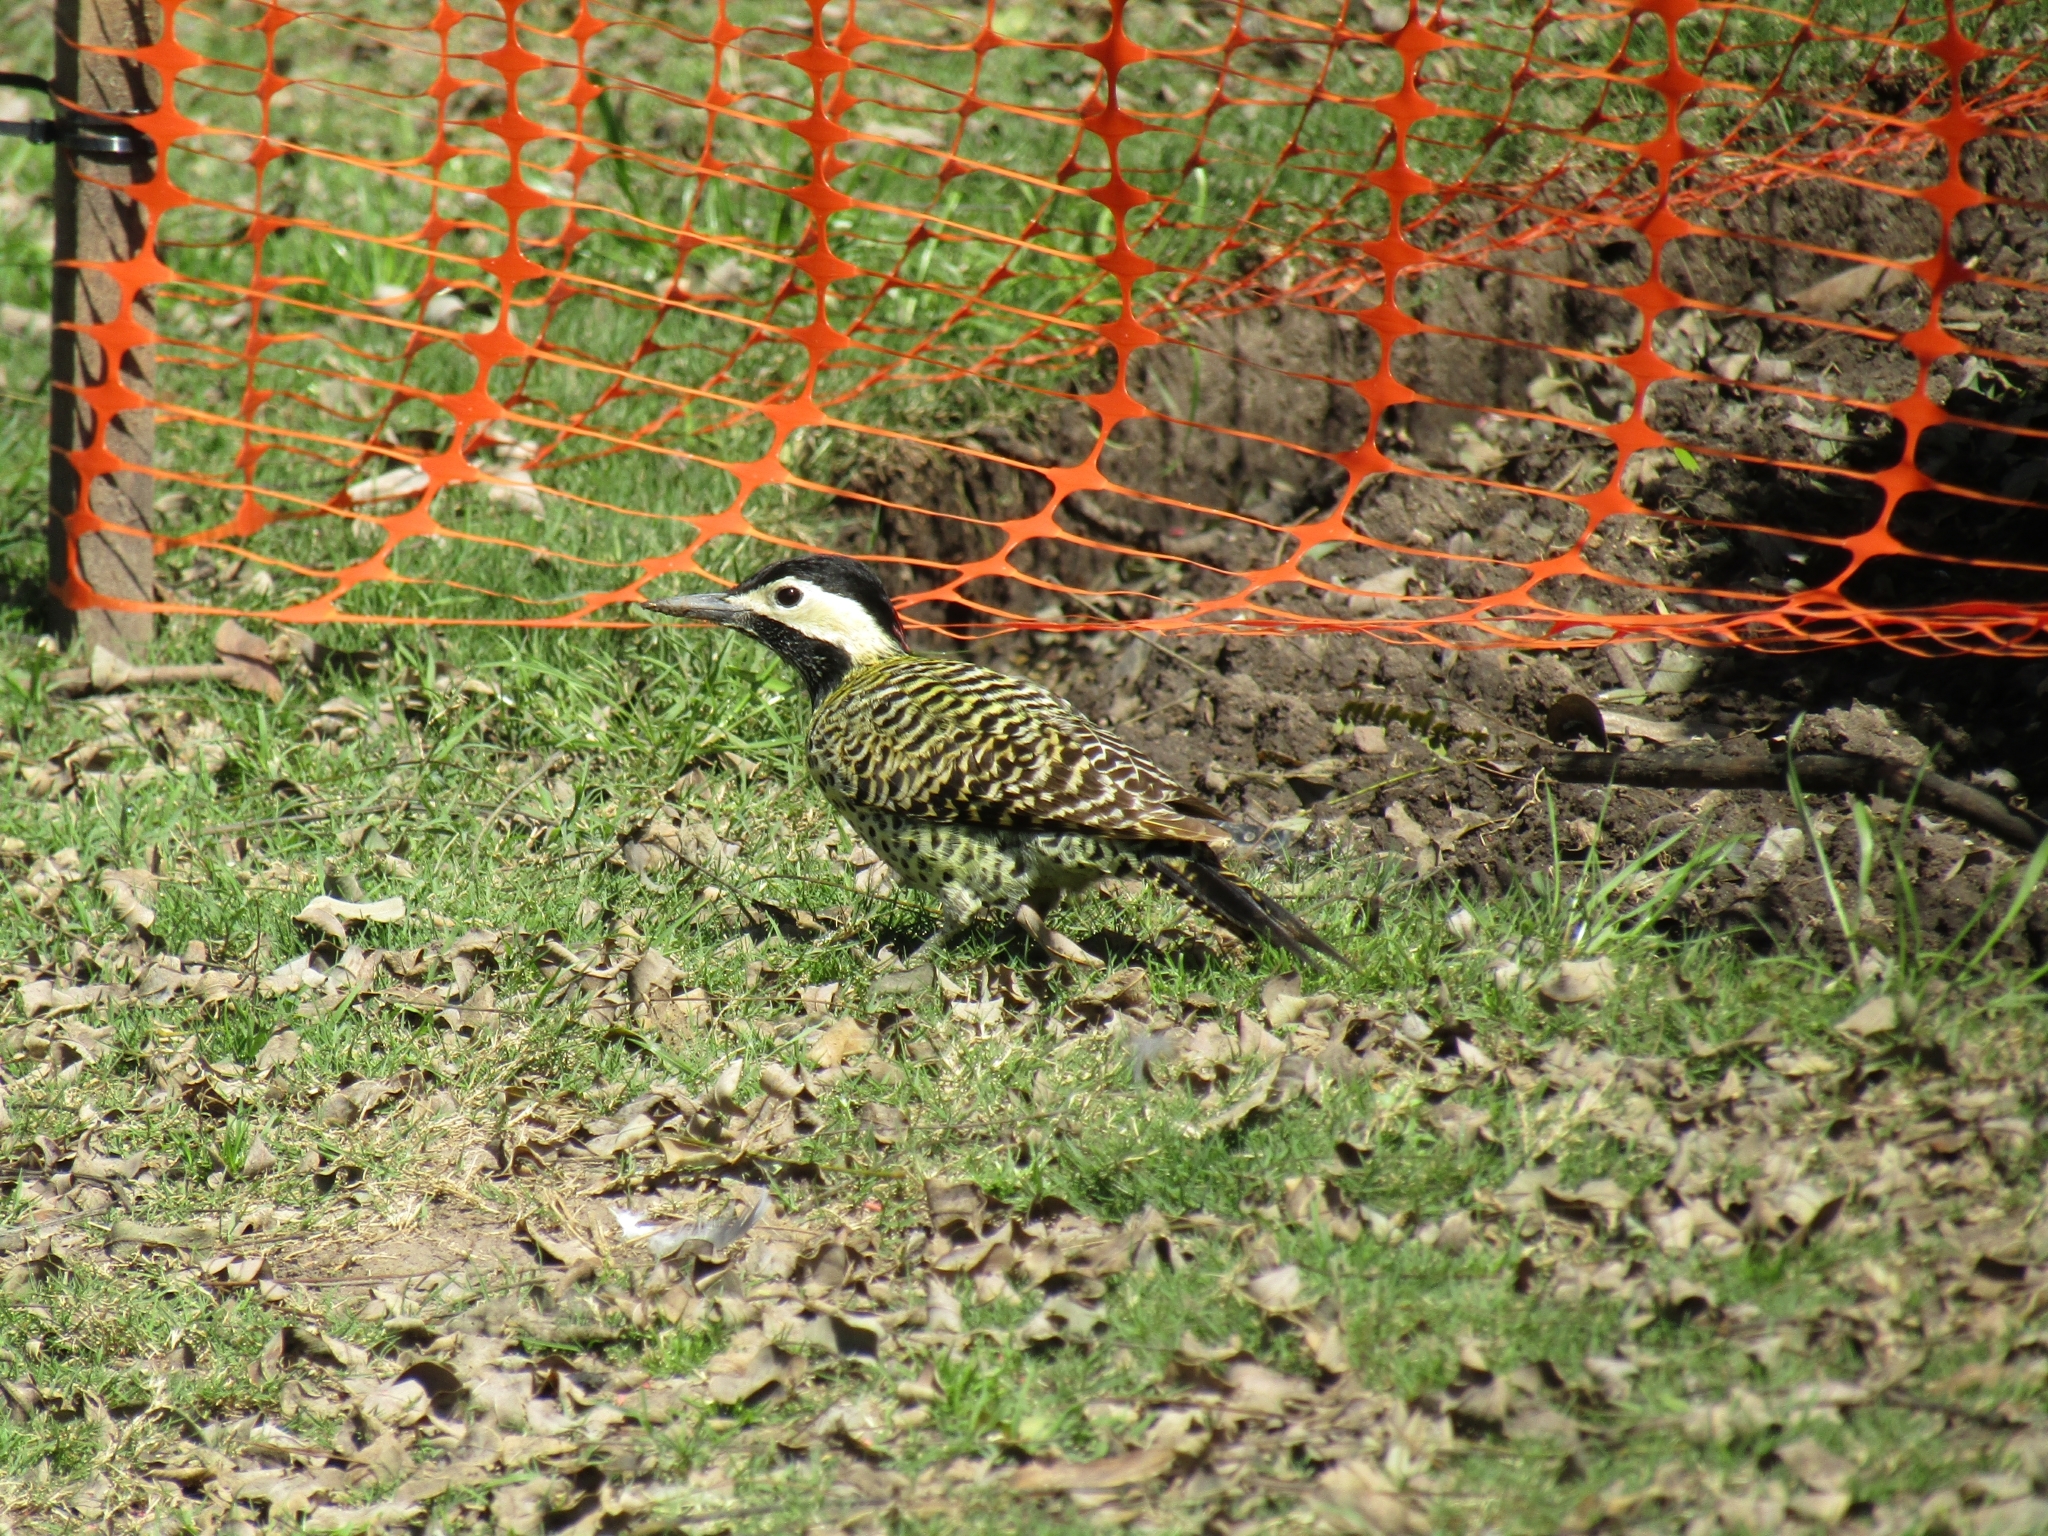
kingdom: Animalia
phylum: Chordata
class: Aves
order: Piciformes
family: Picidae
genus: Colaptes
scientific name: Colaptes melanochloros
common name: Green-barred woodpecker
